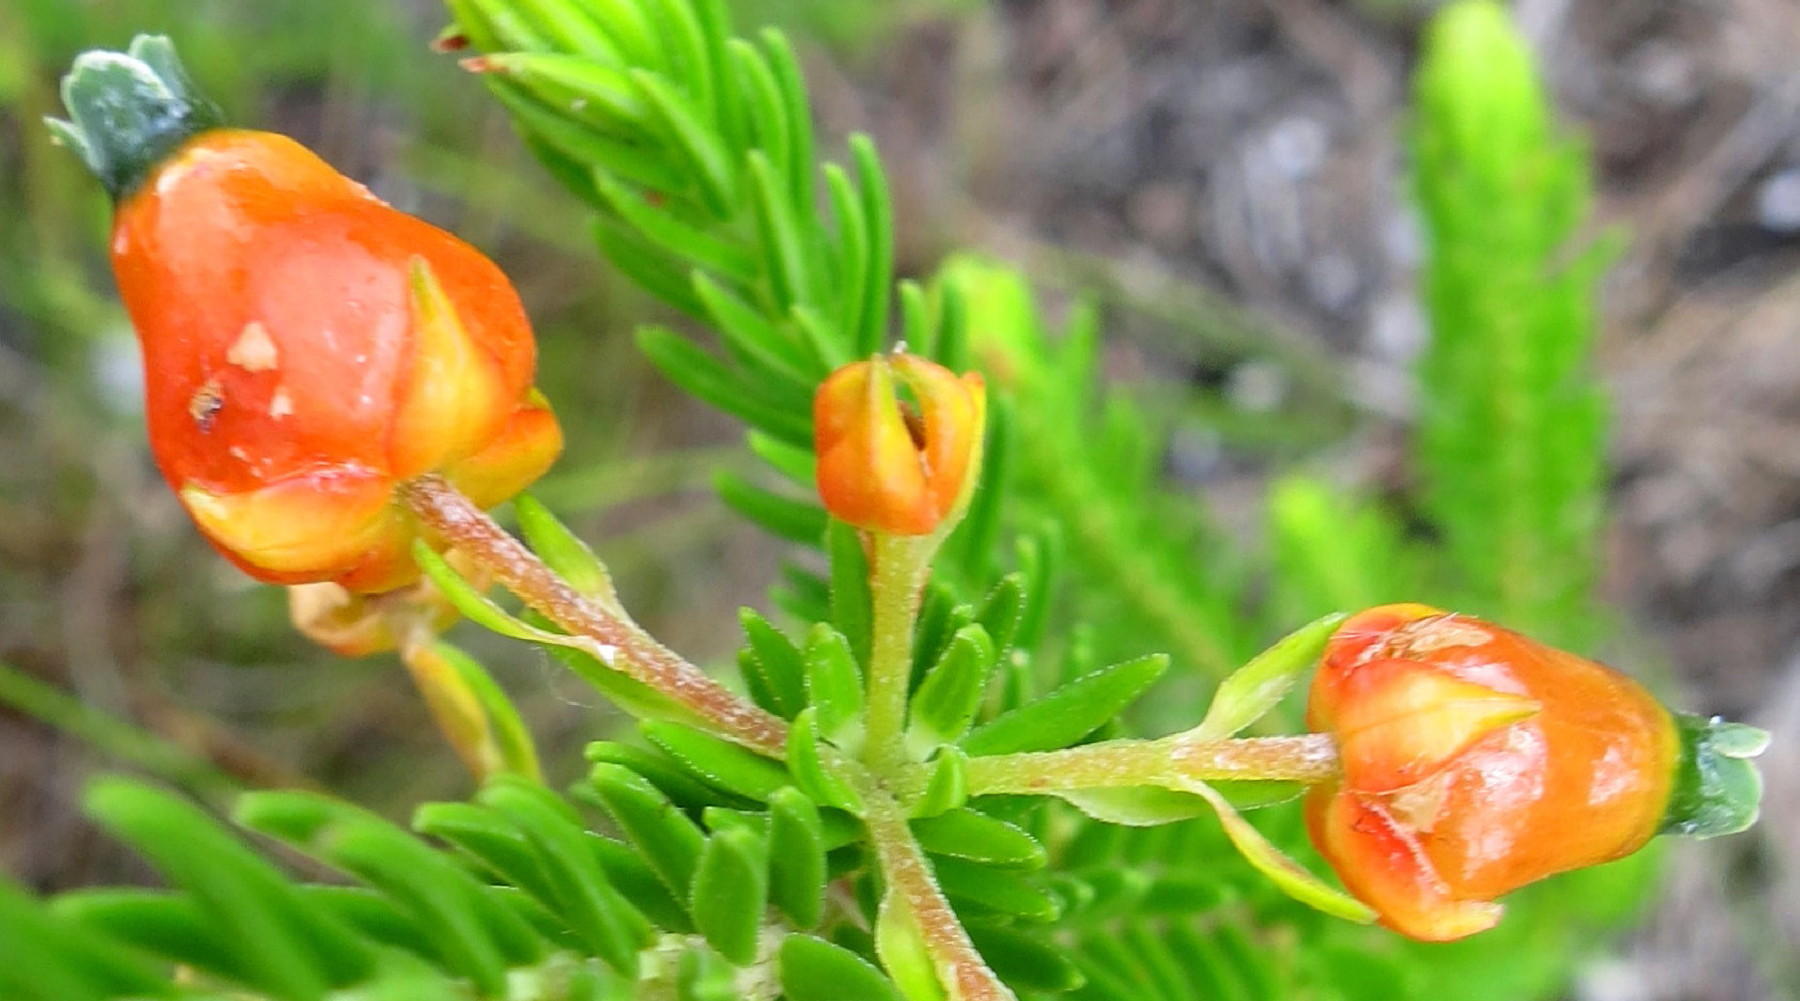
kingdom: Plantae
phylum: Tracheophyta
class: Magnoliopsida
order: Ericales
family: Ericaceae
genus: Erica
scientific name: Erica blenna
